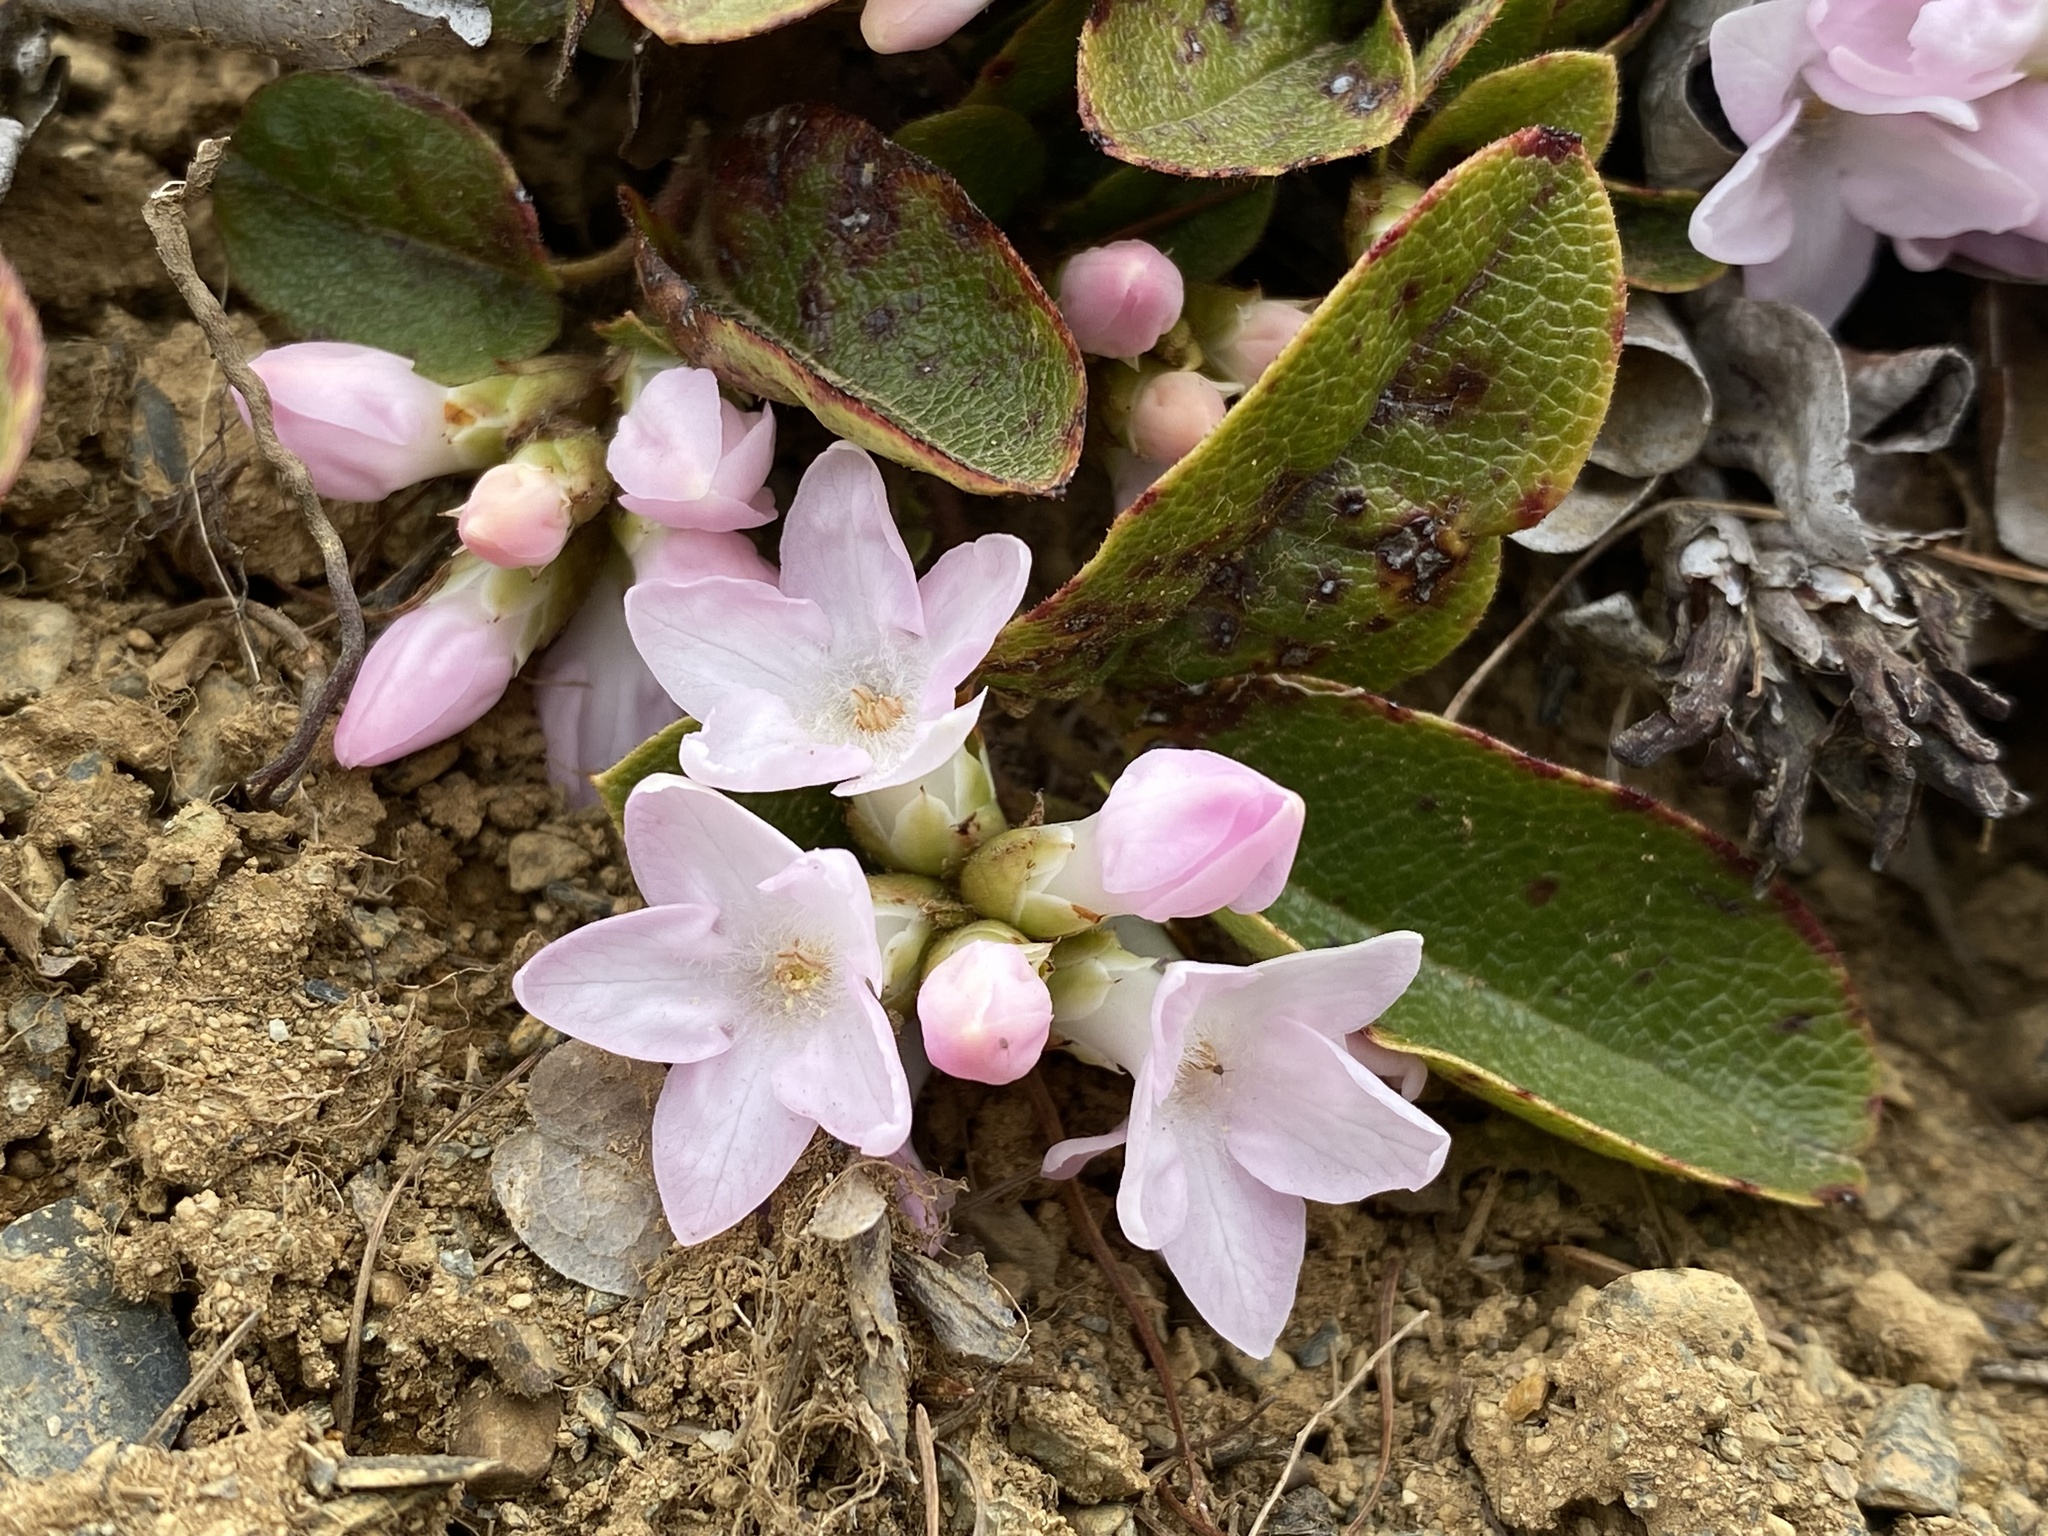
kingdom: Plantae
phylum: Tracheophyta
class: Magnoliopsida
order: Ericales
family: Ericaceae
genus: Epigaea
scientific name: Epigaea repens
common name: Gravelroot
